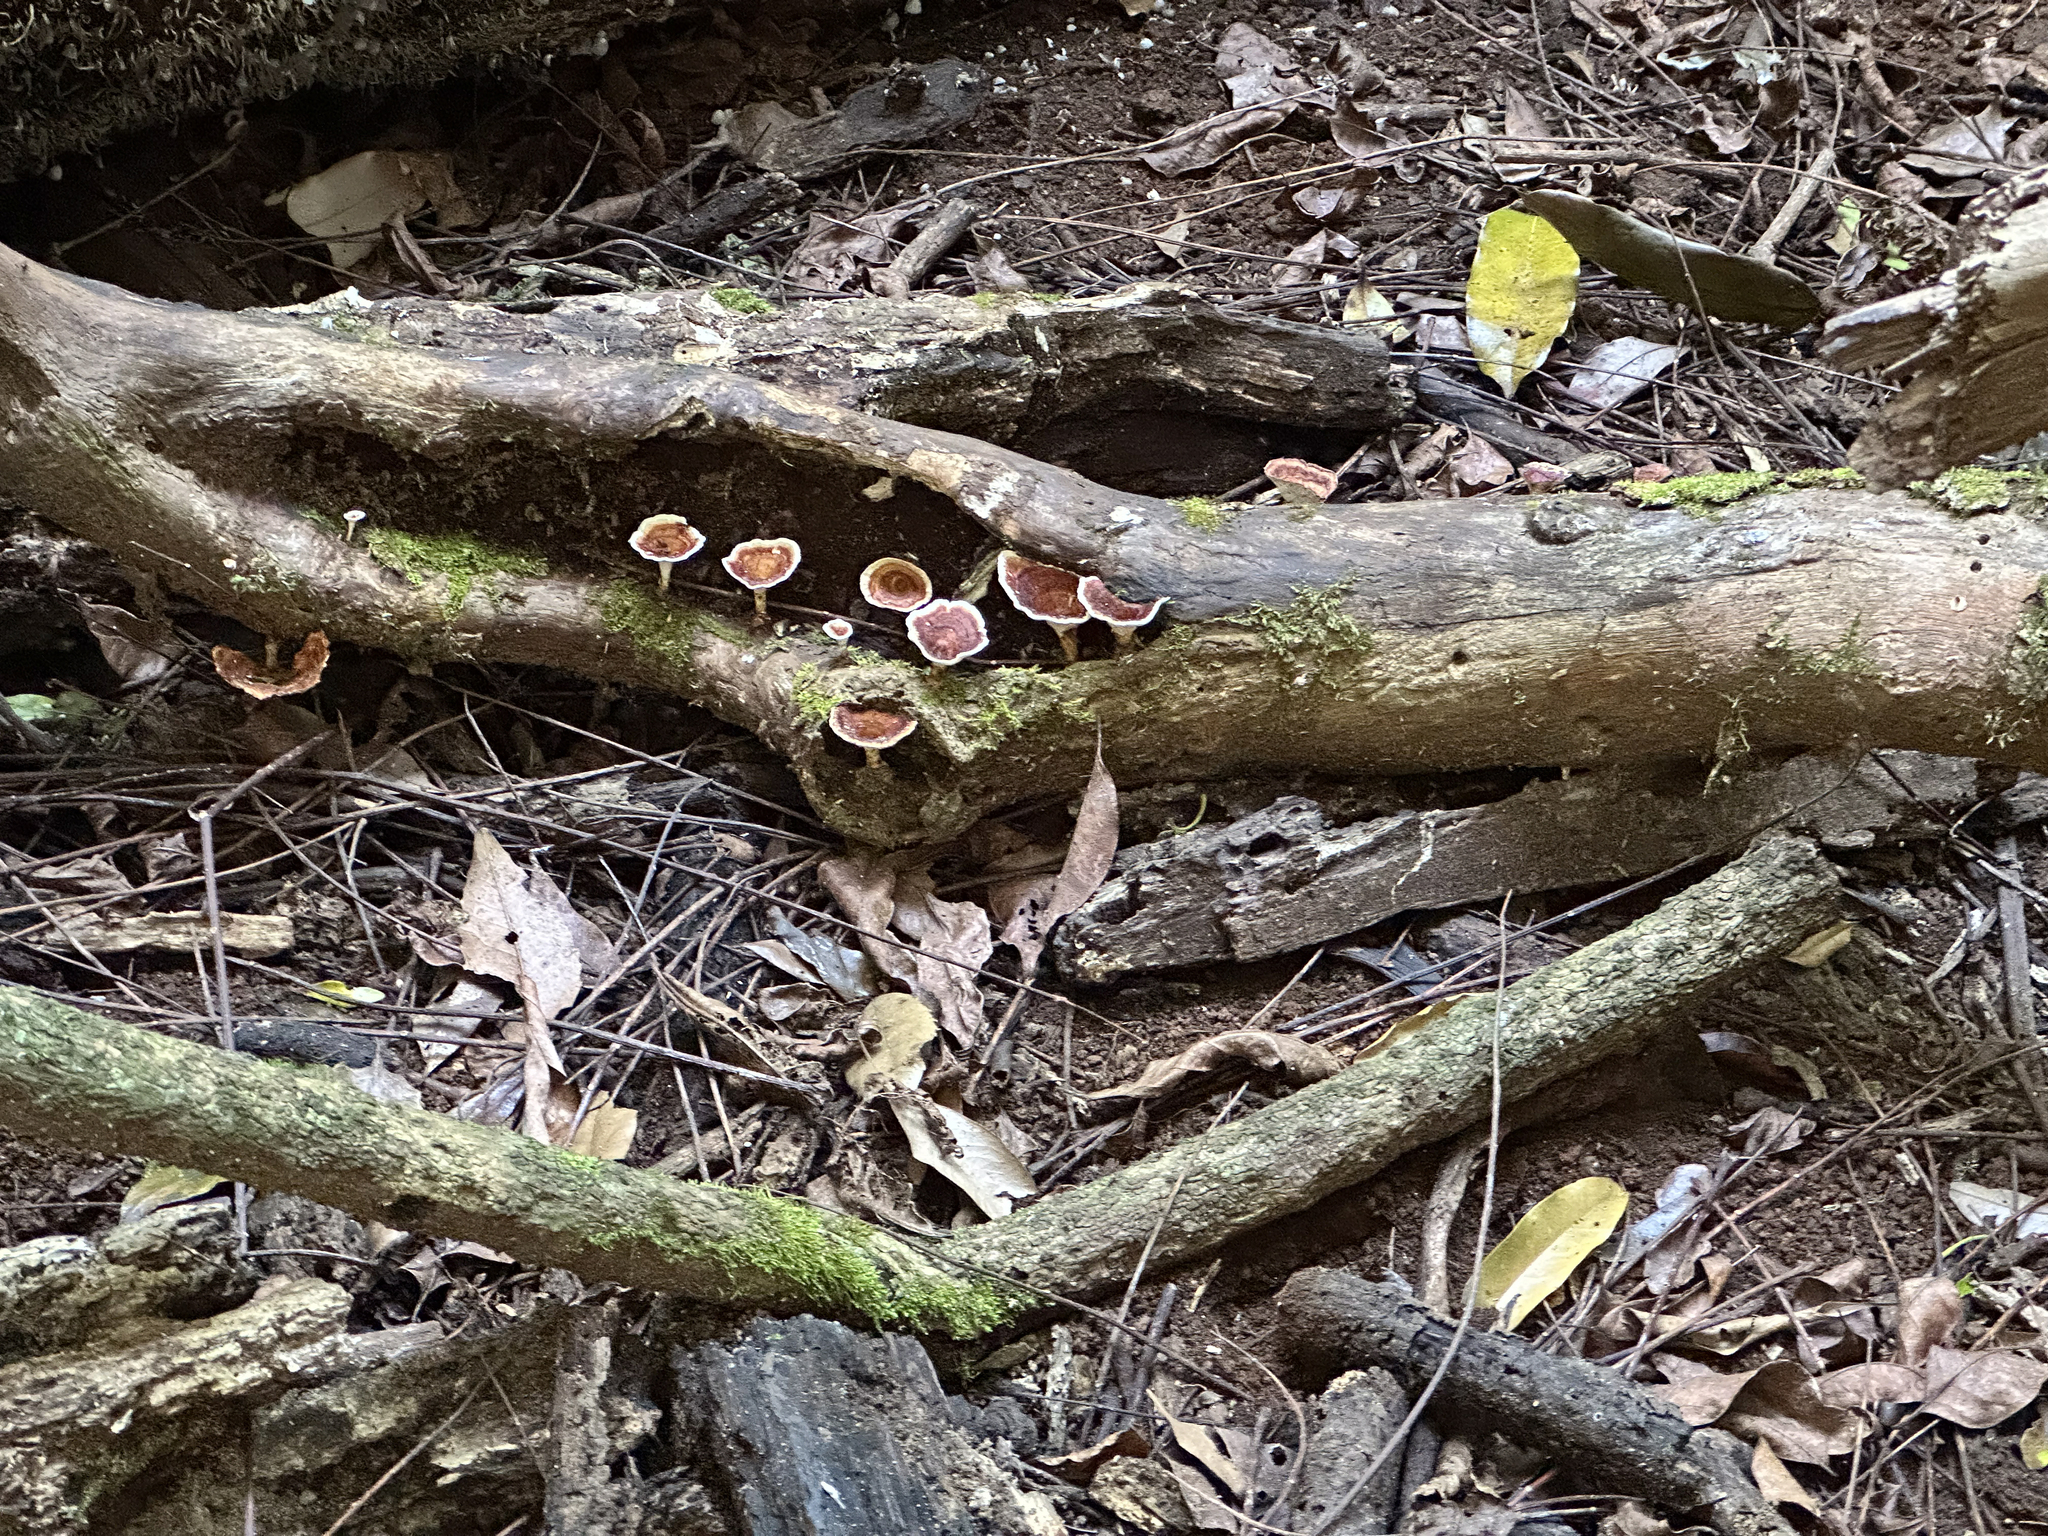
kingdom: Fungi
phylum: Basidiomycota
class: Agaricomycetes
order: Polyporales
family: Polyporaceae
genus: Microporus
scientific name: Microporus xanthopus
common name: Yellow-stemmed micropore
